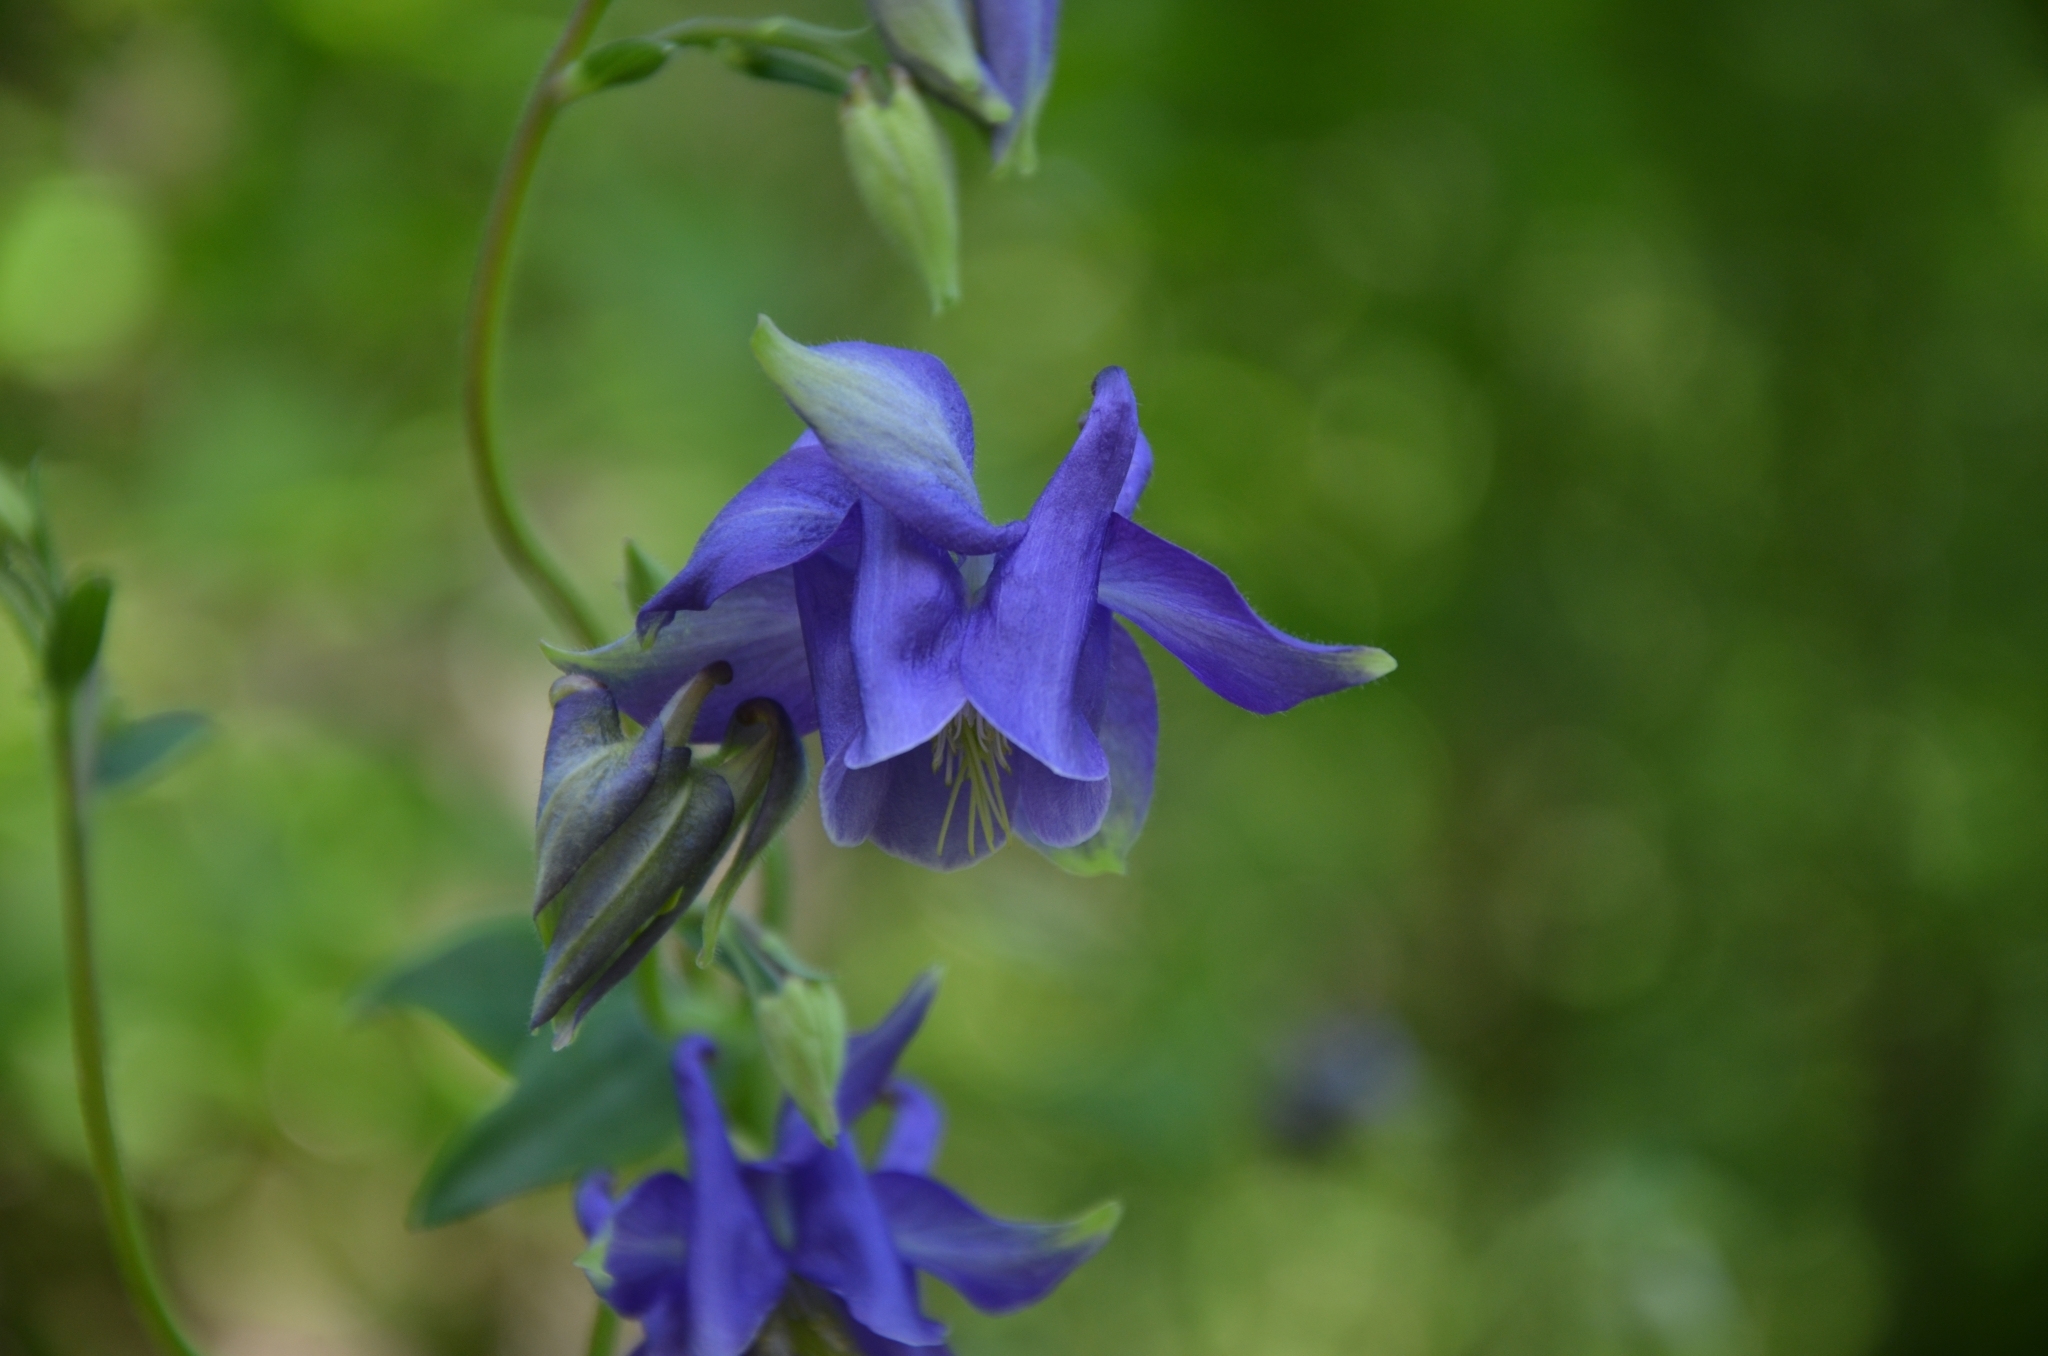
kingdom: Plantae
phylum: Tracheophyta
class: Magnoliopsida
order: Ranunculales
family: Ranunculaceae
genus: Aquilegia
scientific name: Aquilegia vulgaris
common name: Columbine
